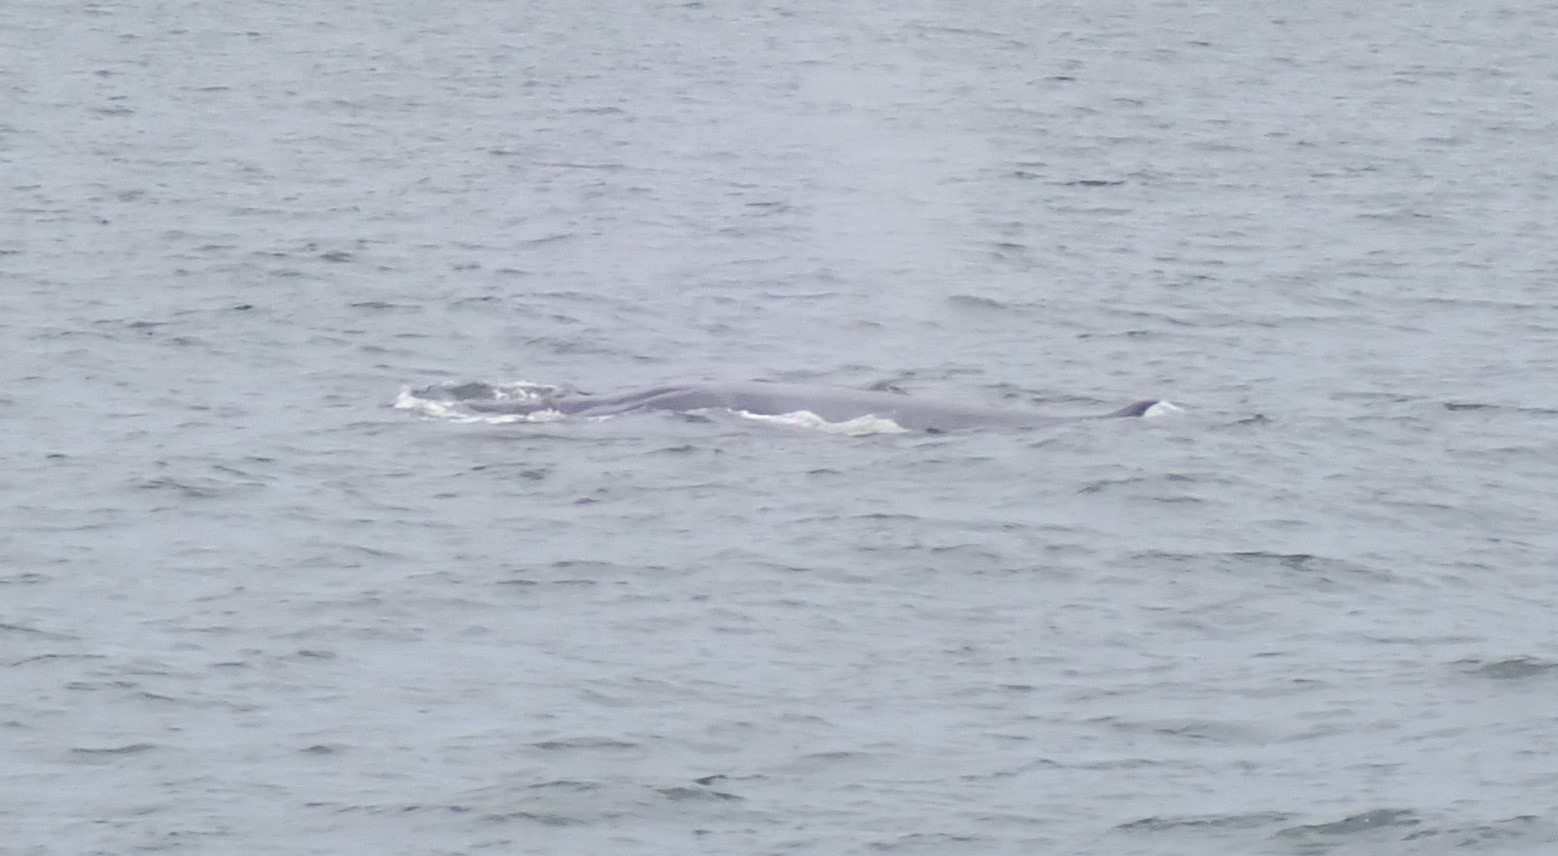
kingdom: Animalia
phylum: Chordata
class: Mammalia
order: Cetacea
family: Balaenopteridae
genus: Balaenoptera
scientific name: Balaenoptera edeni
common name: Bryde's whale
